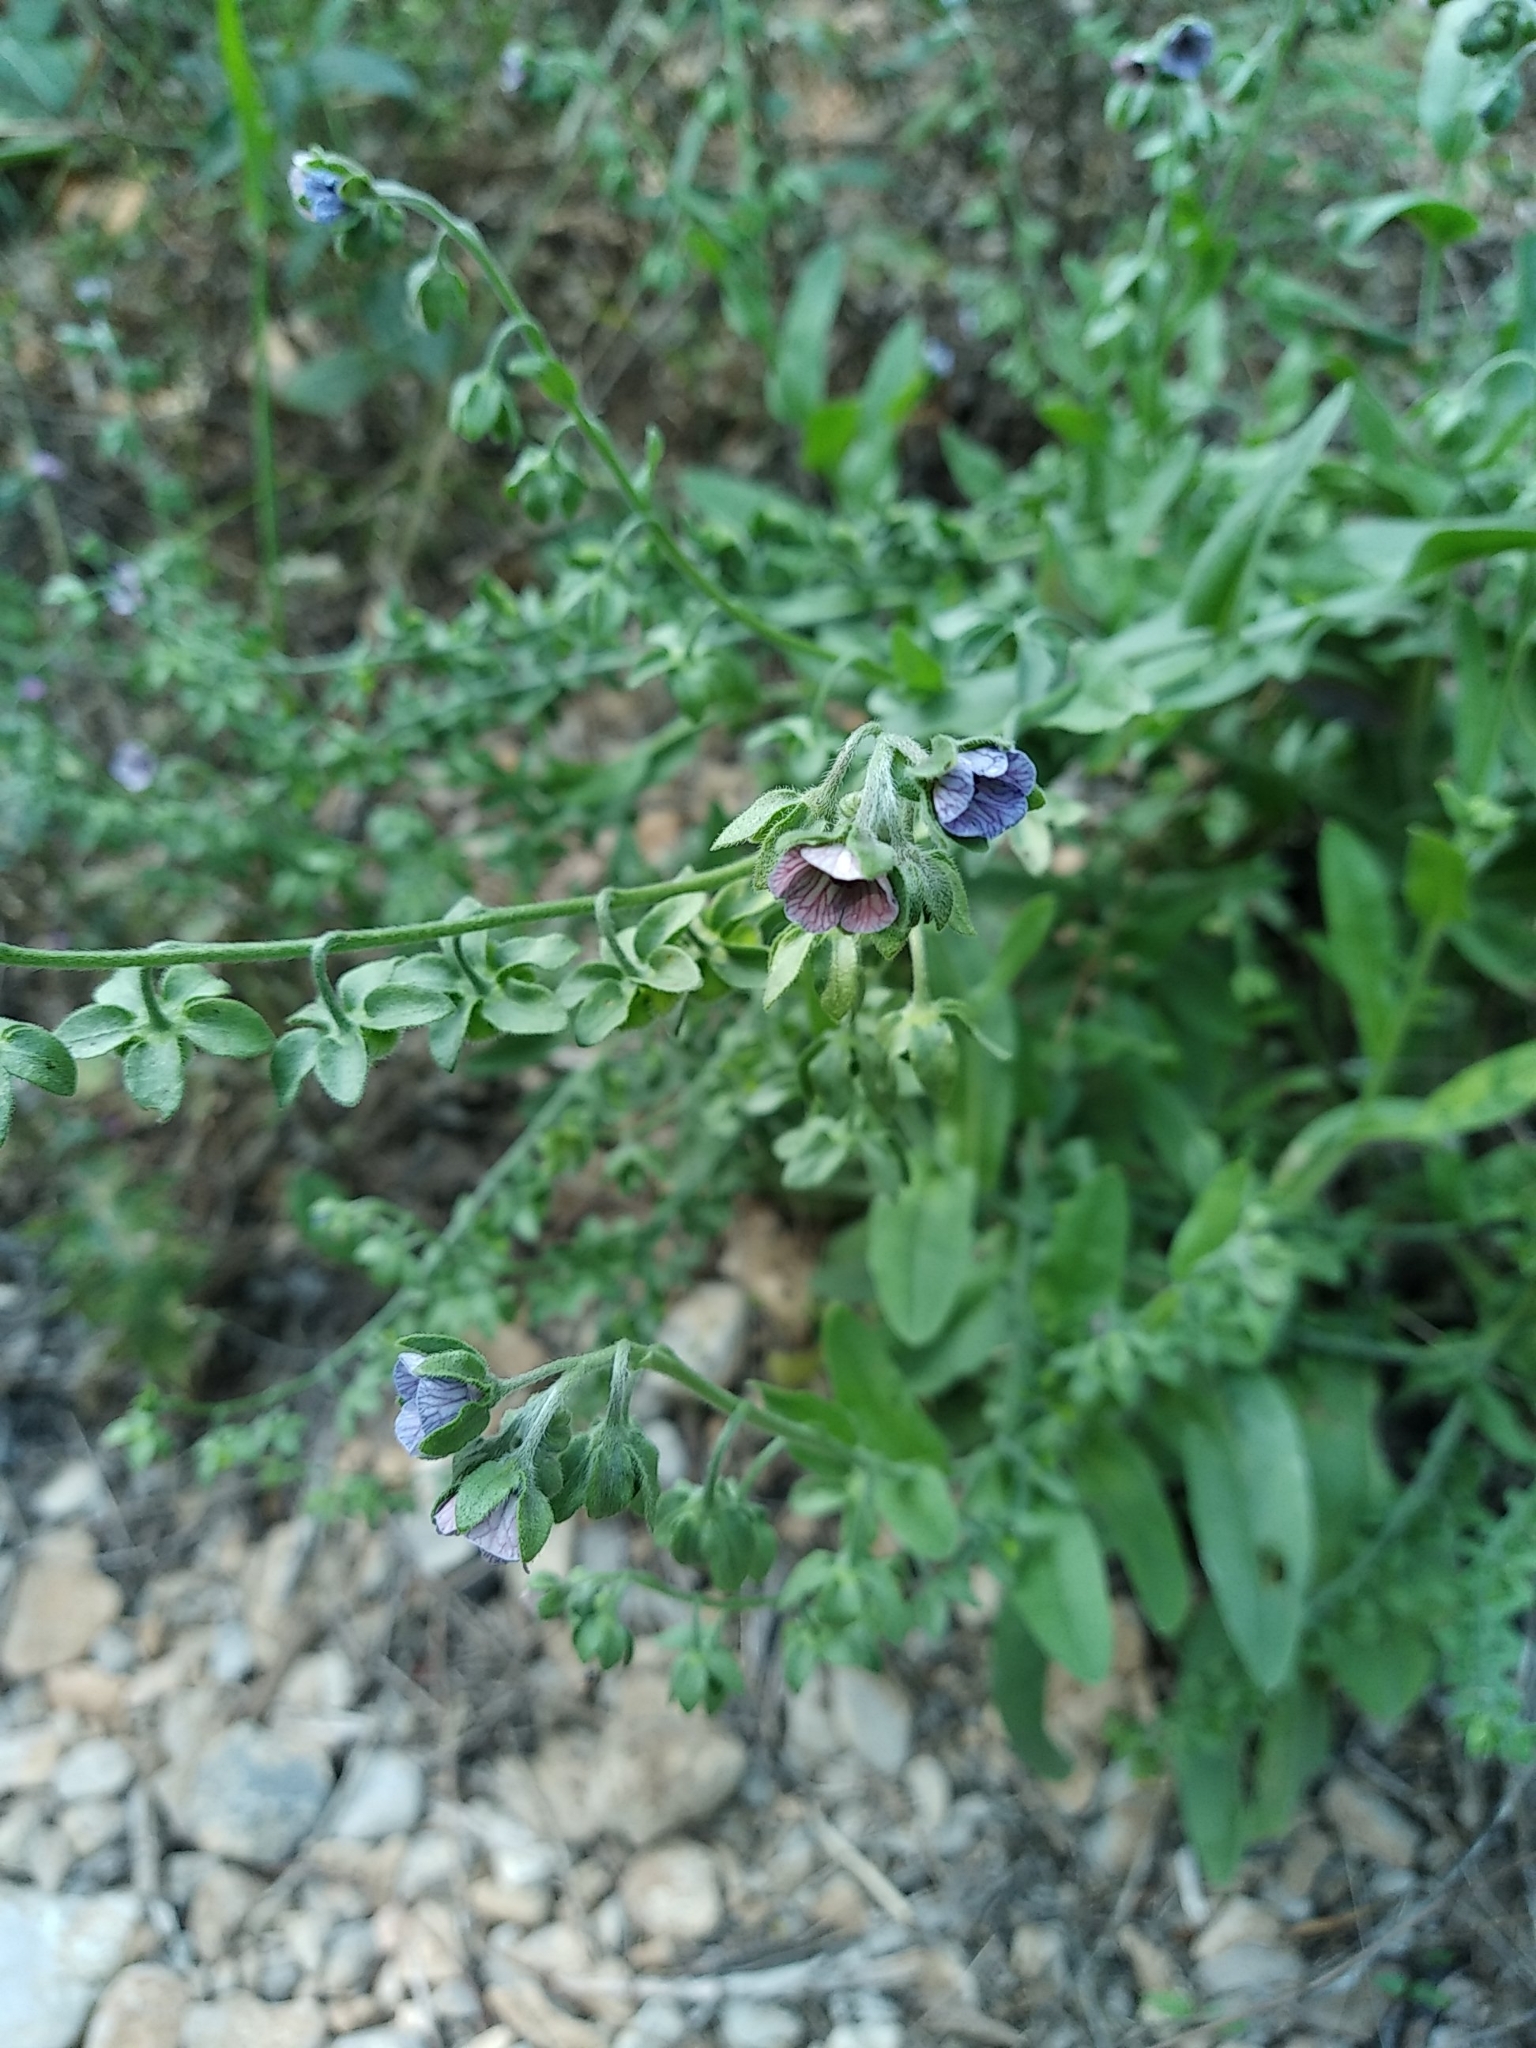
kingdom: Plantae
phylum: Tracheophyta
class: Magnoliopsida
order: Boraginales
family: Boraginaceae
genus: Cynoglossum
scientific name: Cynoglossum creticum
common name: Blue hound's tongue
